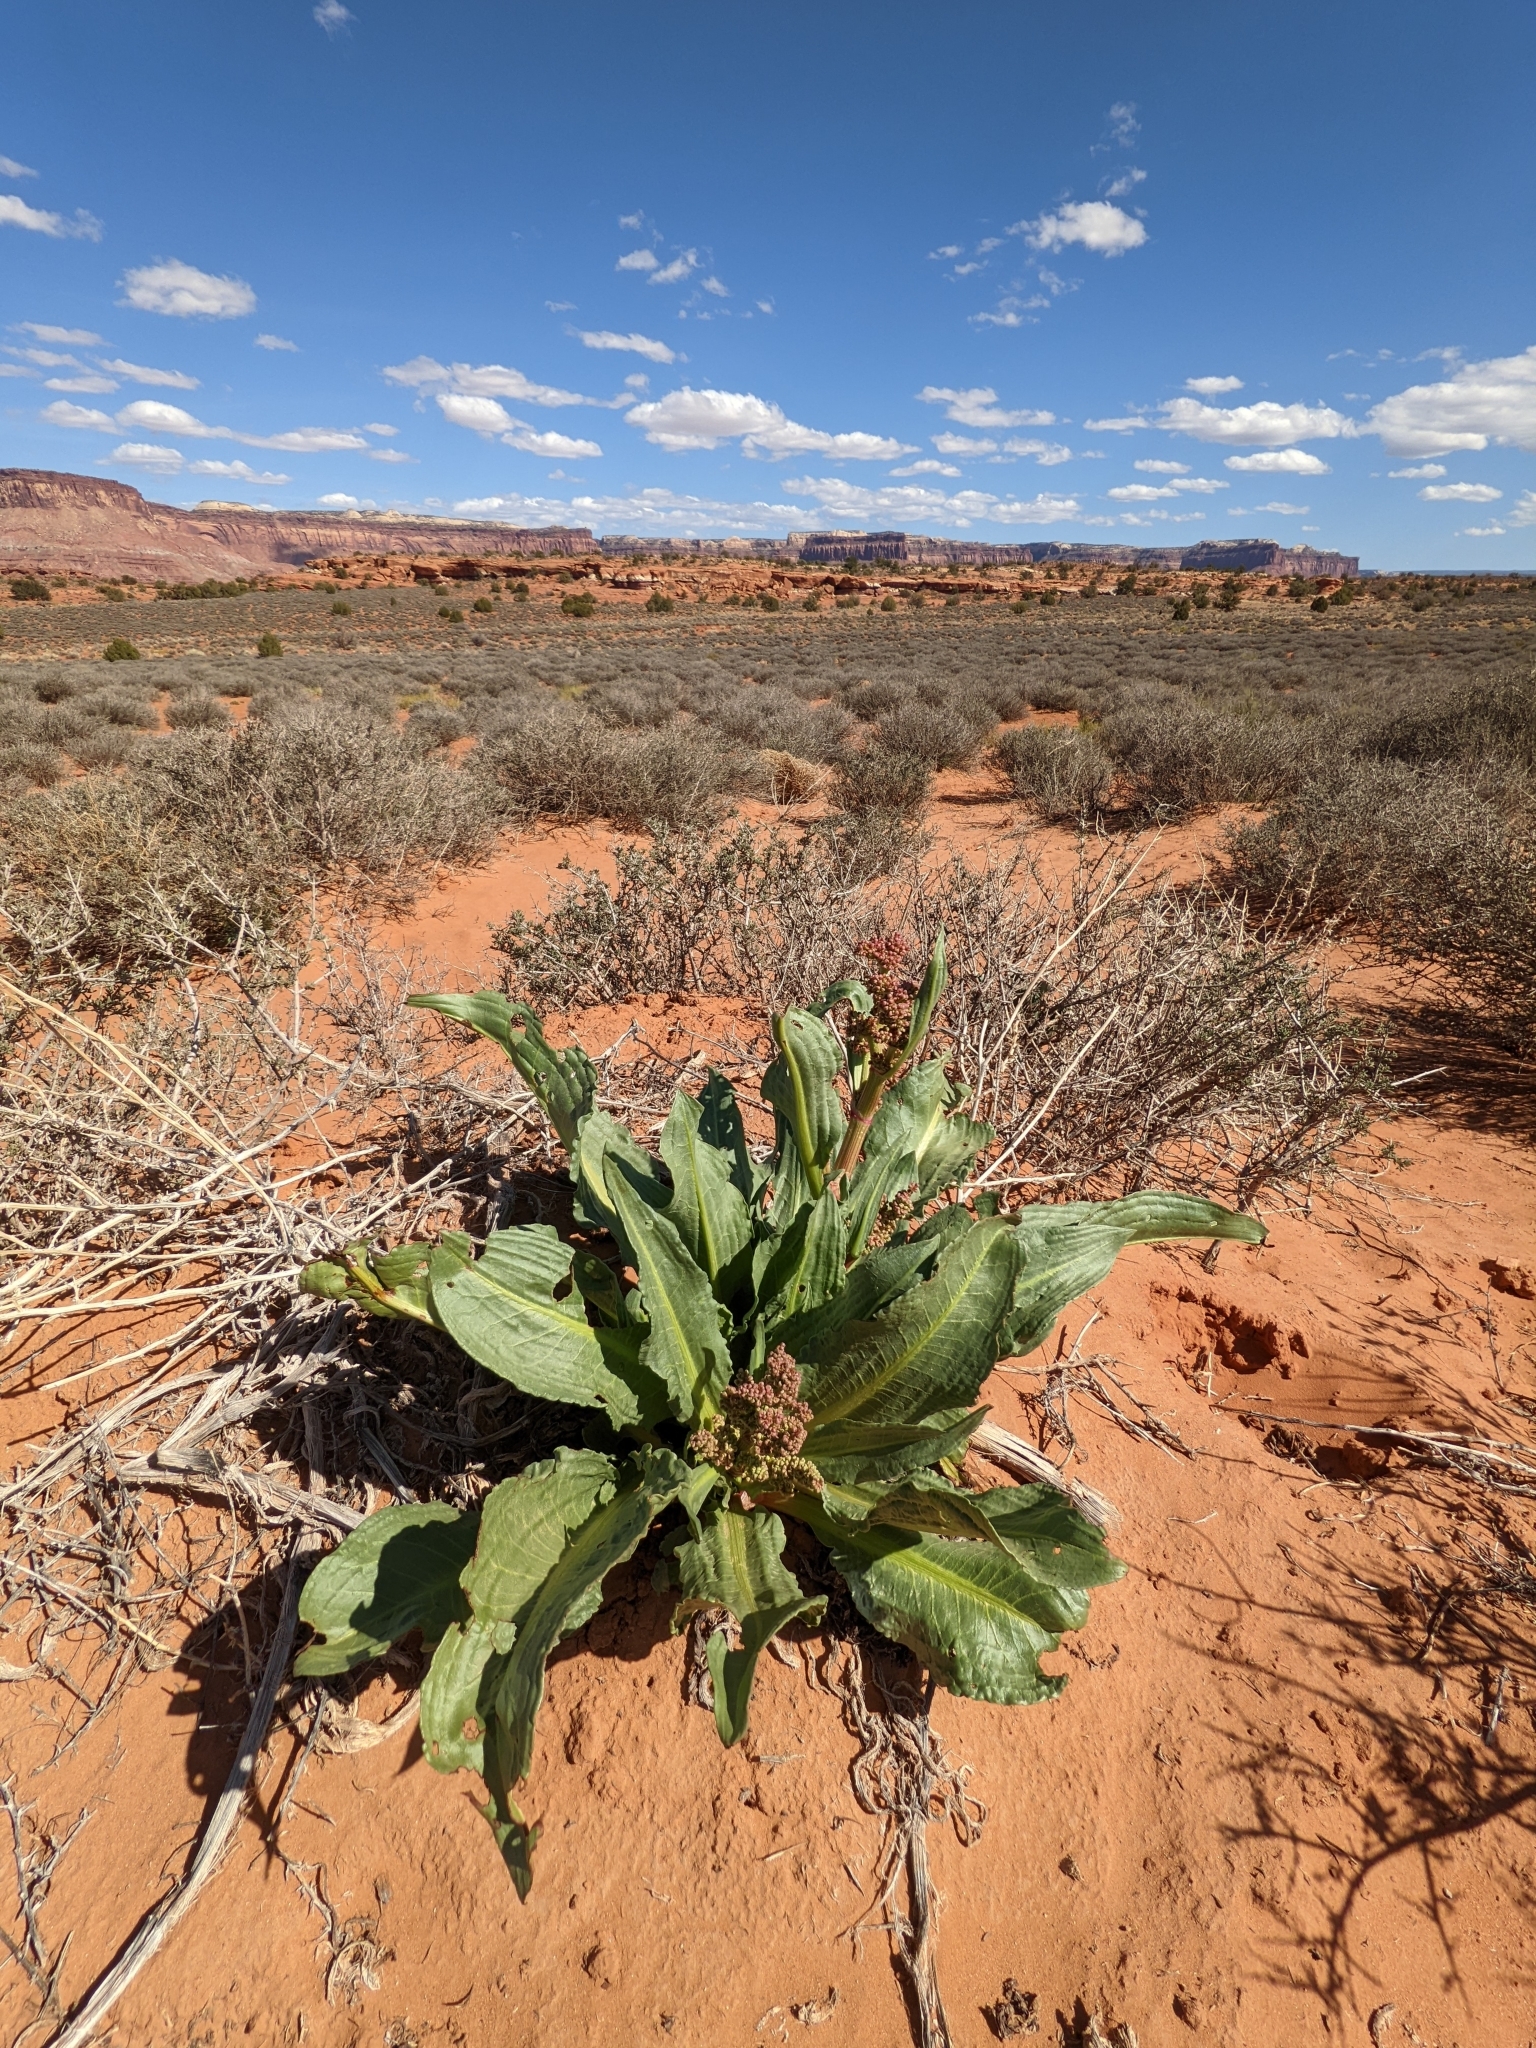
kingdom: Plantae
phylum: Tracheophyta
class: Magnoliopsida
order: Caryophyllales
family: Polygonaceae
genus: Rumex
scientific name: Rumex hymenosepalus
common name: Ganagra
